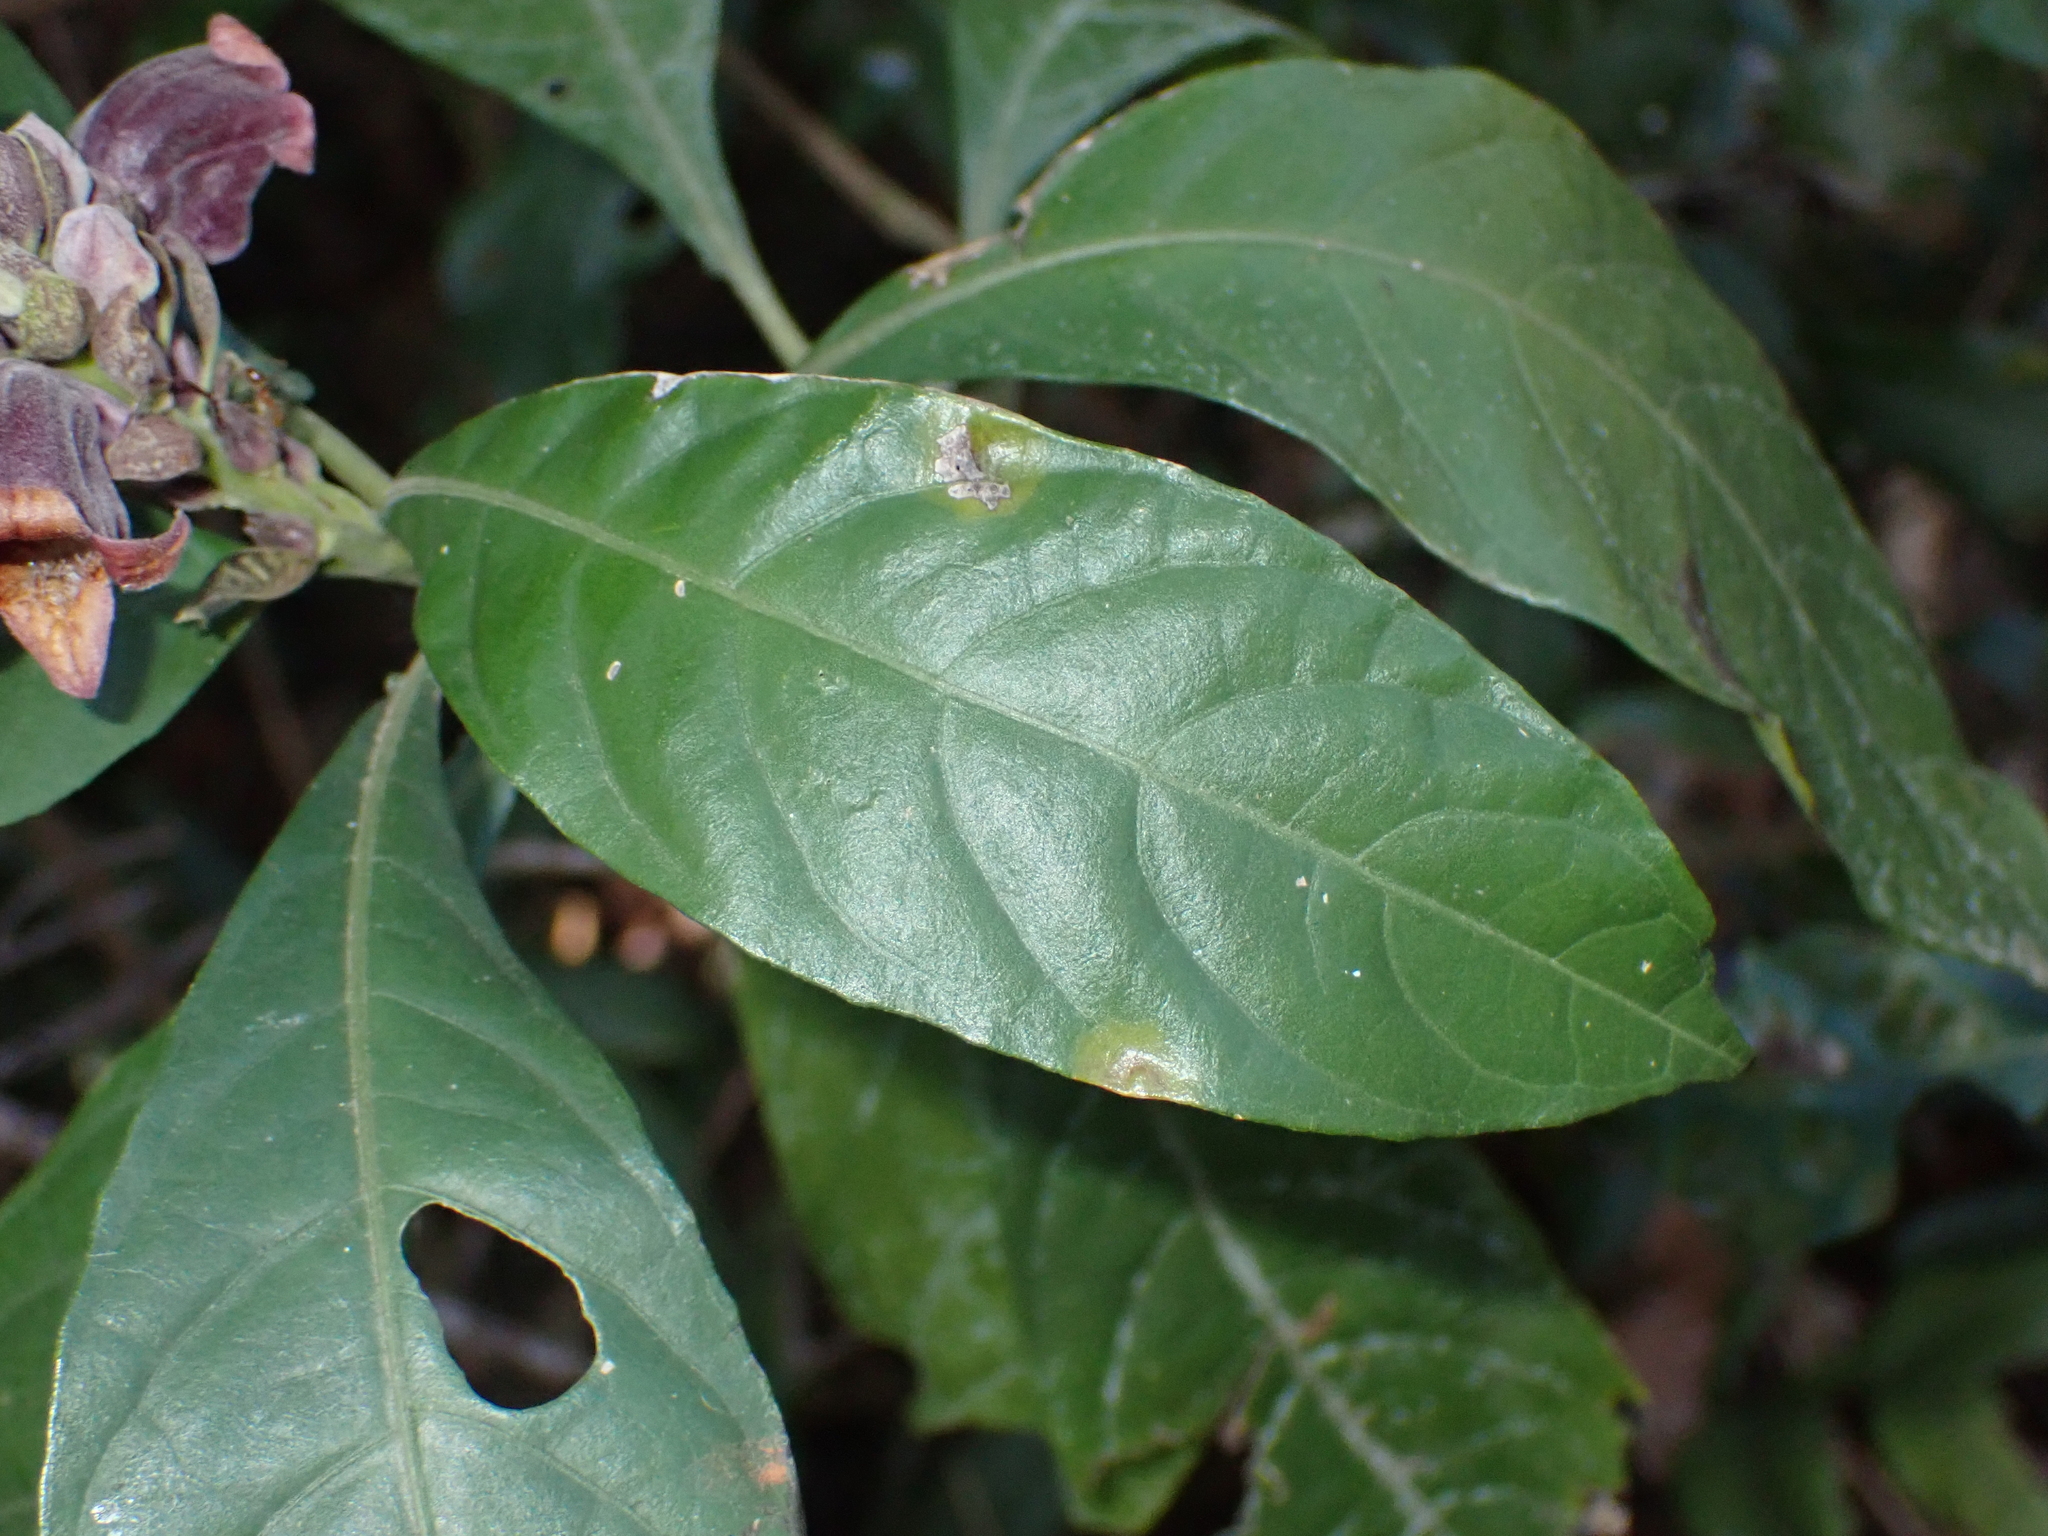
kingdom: Plantae
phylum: Tracheophyta
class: Magnoliopsida
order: Lamiales
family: Acanthaceae
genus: Phlogacanthus
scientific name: Phlogacanthus pulcherrimus
